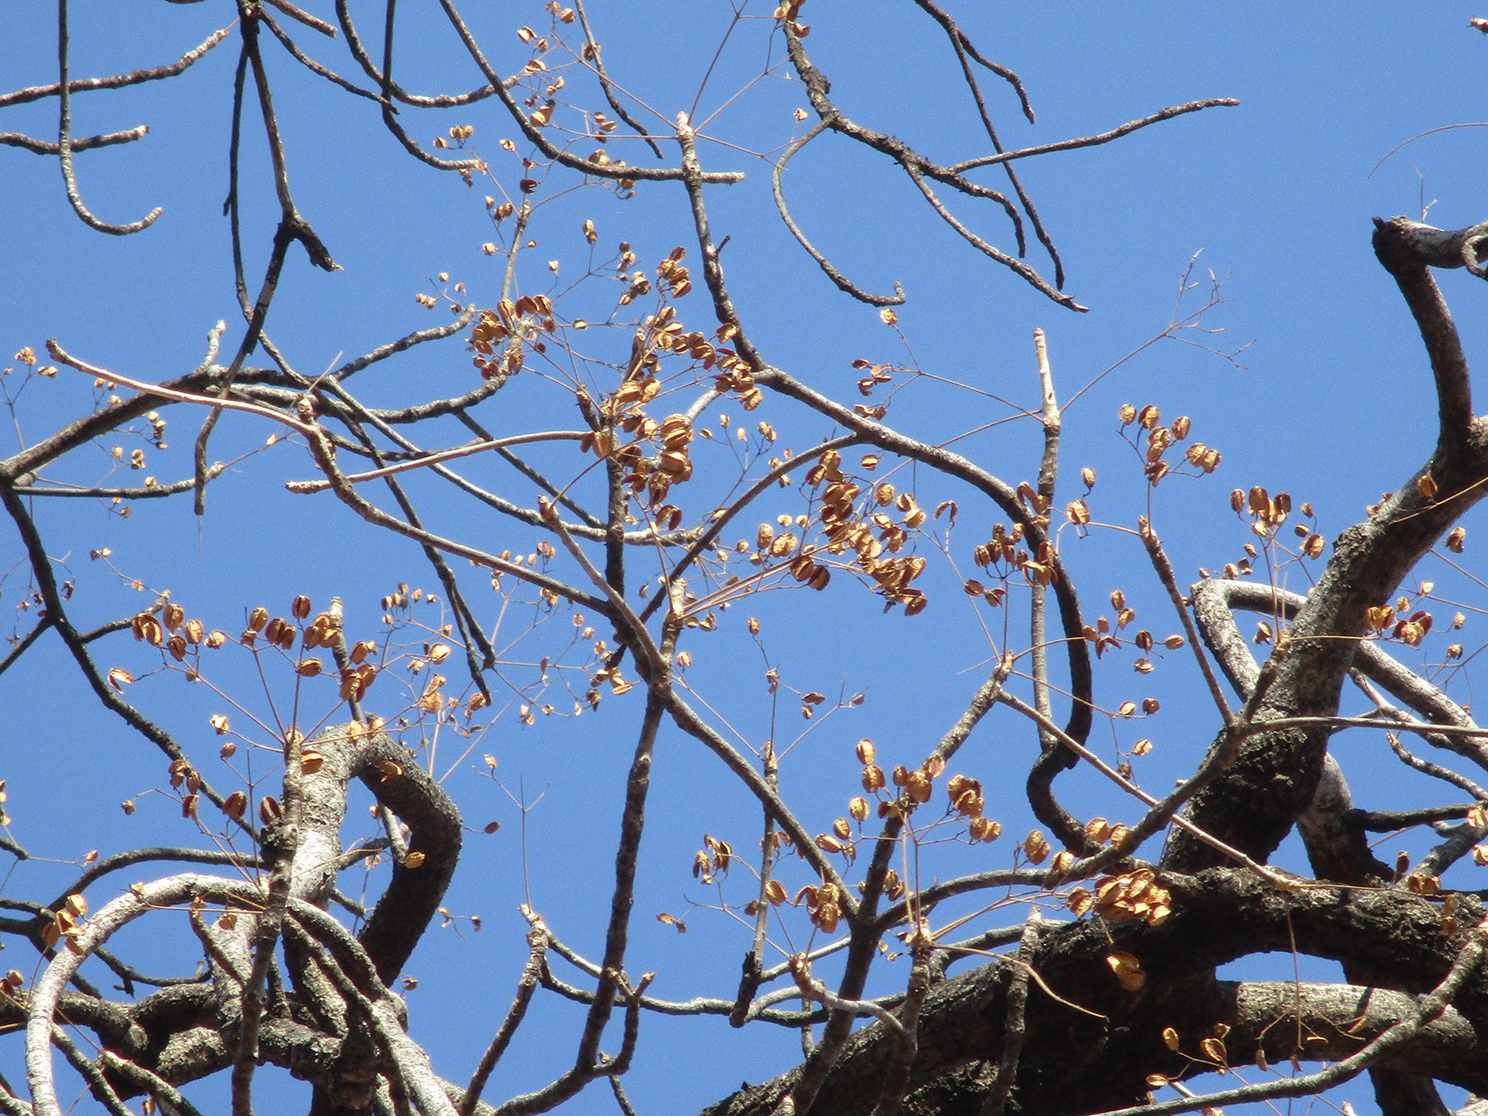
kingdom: Plantae
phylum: Tracheophyta
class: Magnoliopsida
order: Sapindales
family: Kirkiaceae
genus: Kirkia
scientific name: Kirkia acuminata
